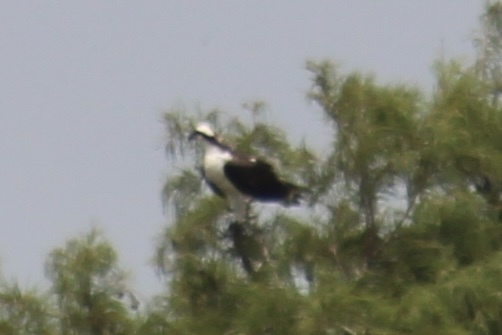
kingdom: Animalia
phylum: Chordata
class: Aves
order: Accipitriformes
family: Pandionidae
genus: Pandion
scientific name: Pandion haliaetus
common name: Osprey
